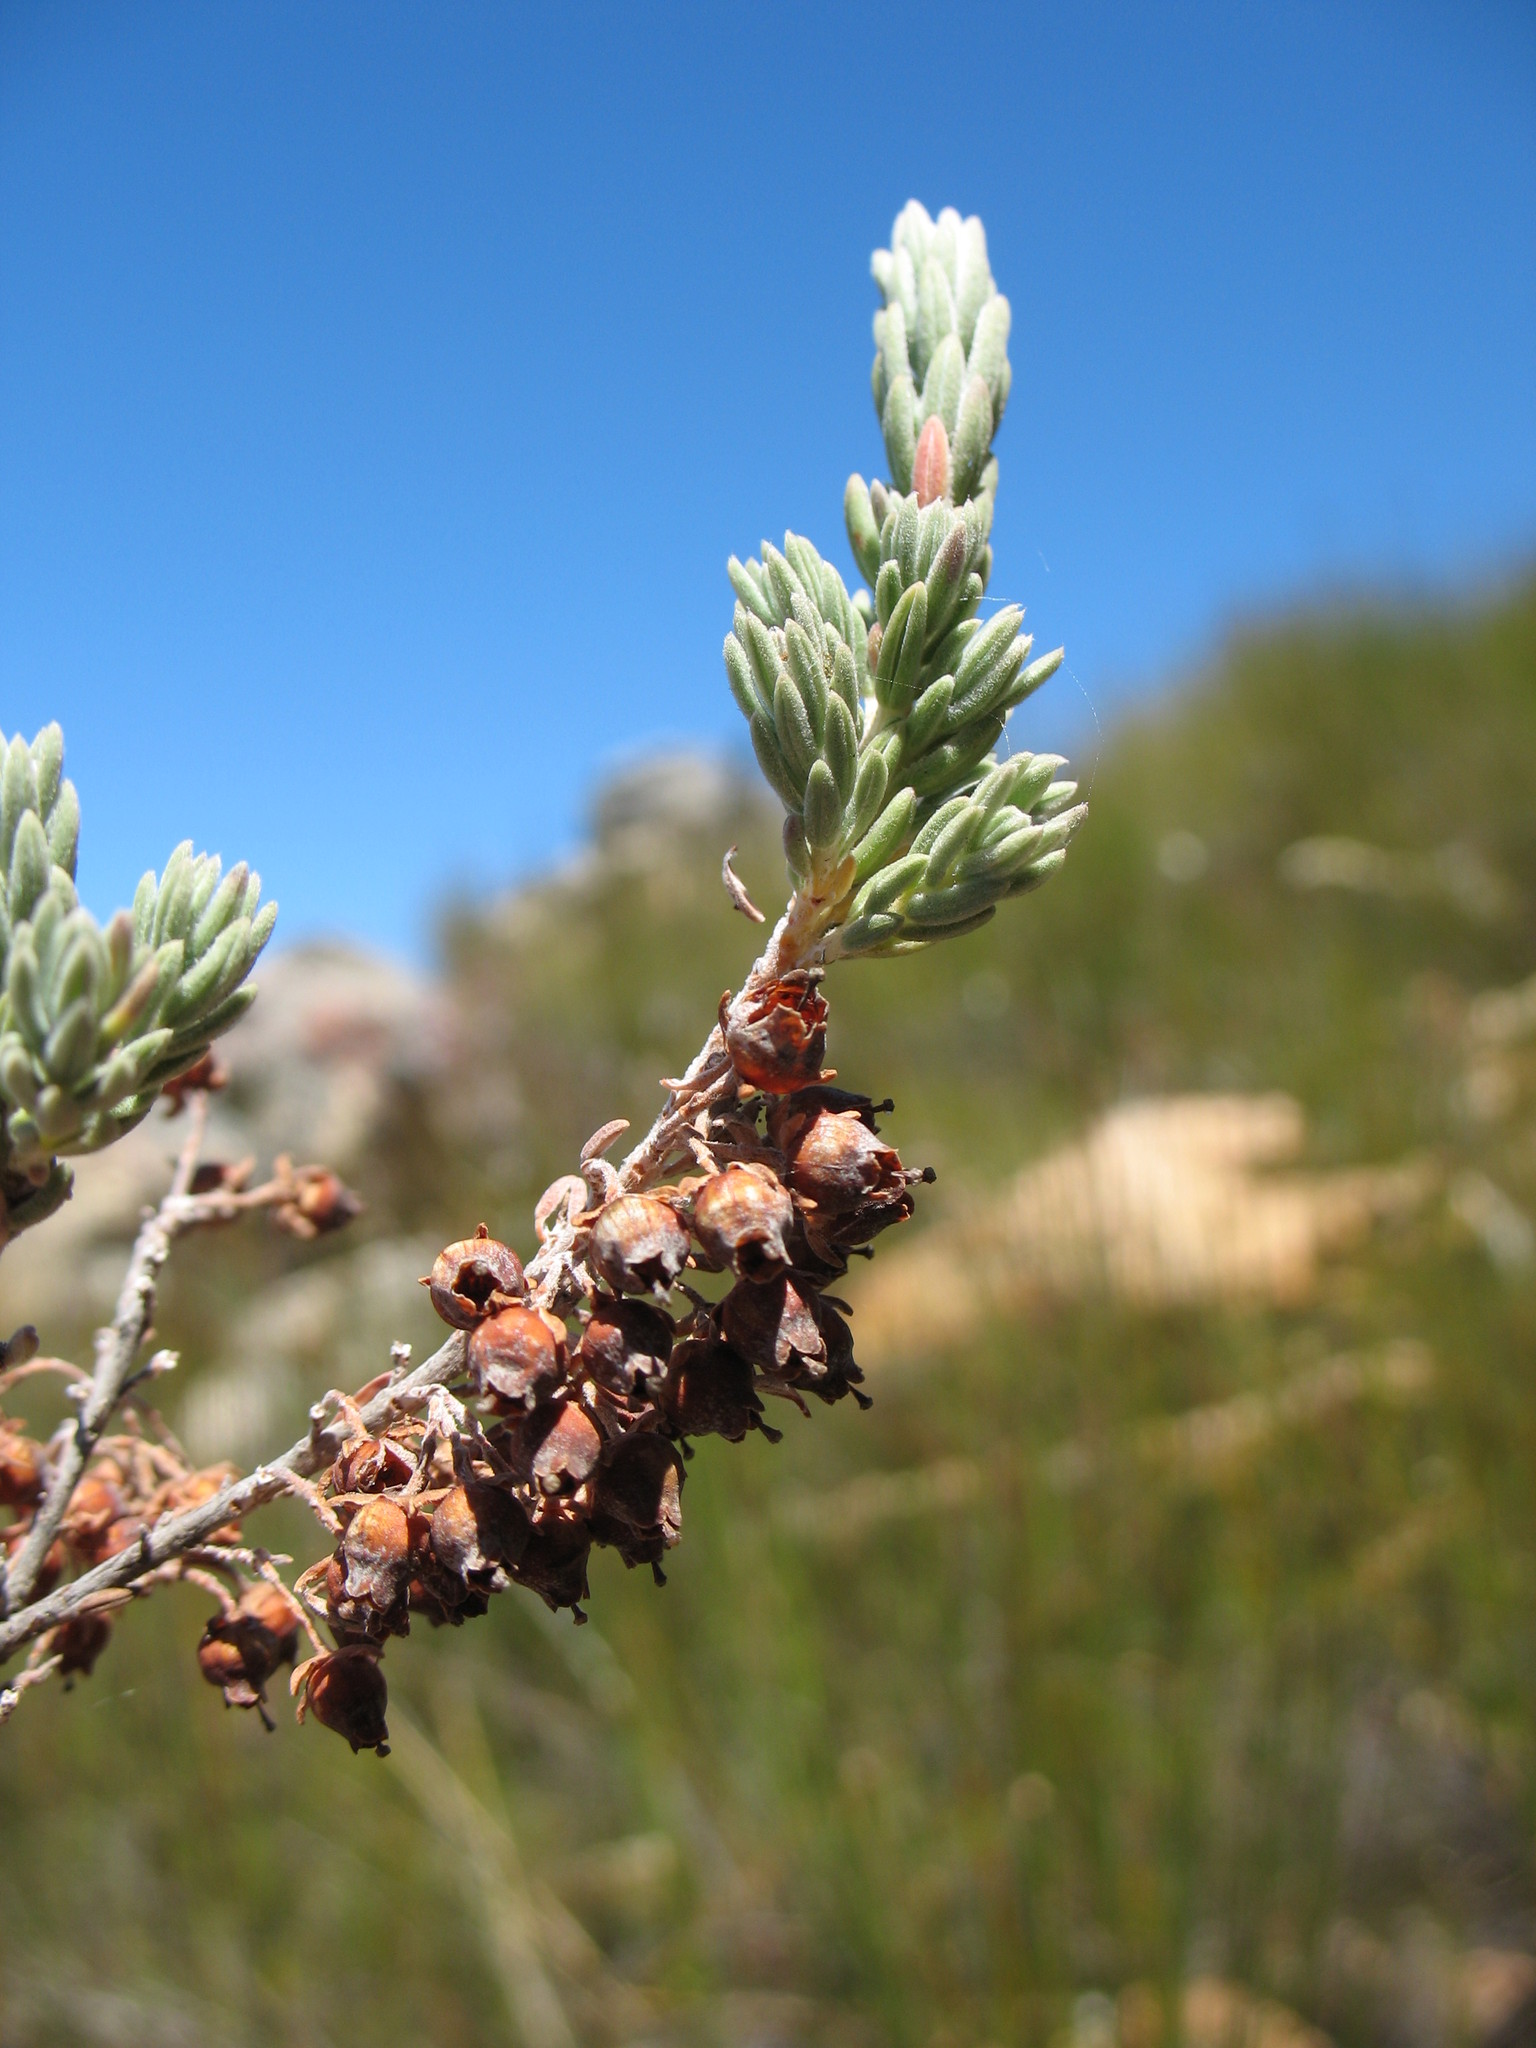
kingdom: Plantae
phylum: Tracheophyta
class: Magnoliopsida
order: Ericales
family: Ericaceae
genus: Erica
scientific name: Erica leucodesmia
